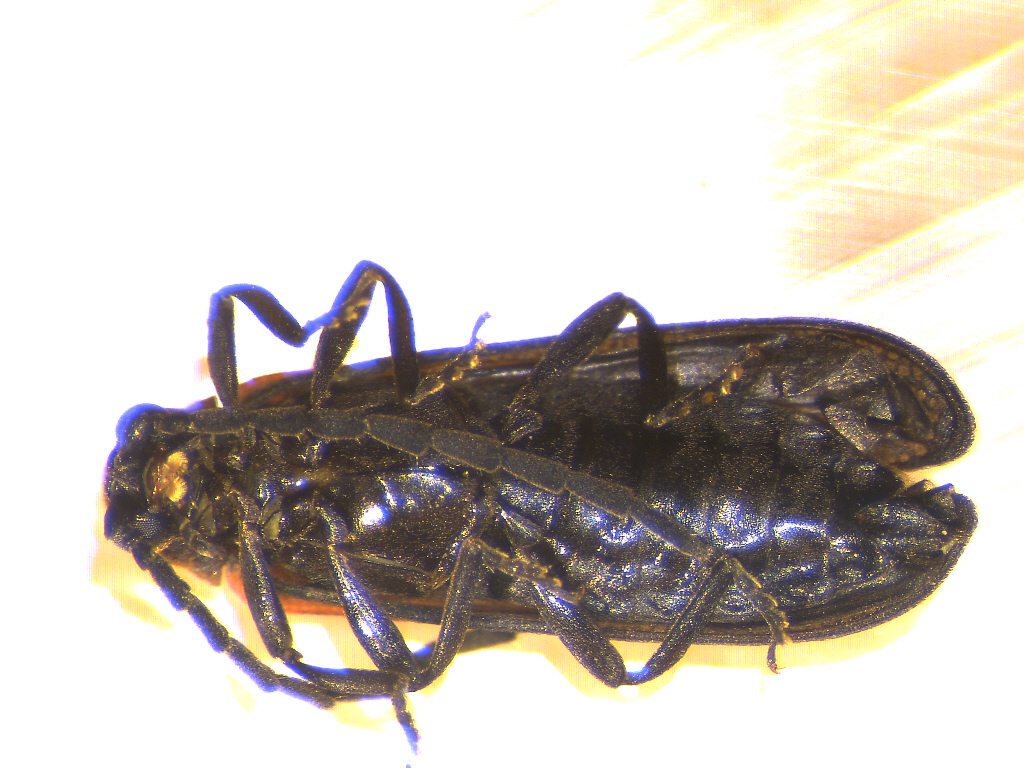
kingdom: Animalia
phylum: Arthropoda
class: Insecta
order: Coleoptera
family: Lycidae
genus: Greenarus
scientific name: Greenarus thoracicus
